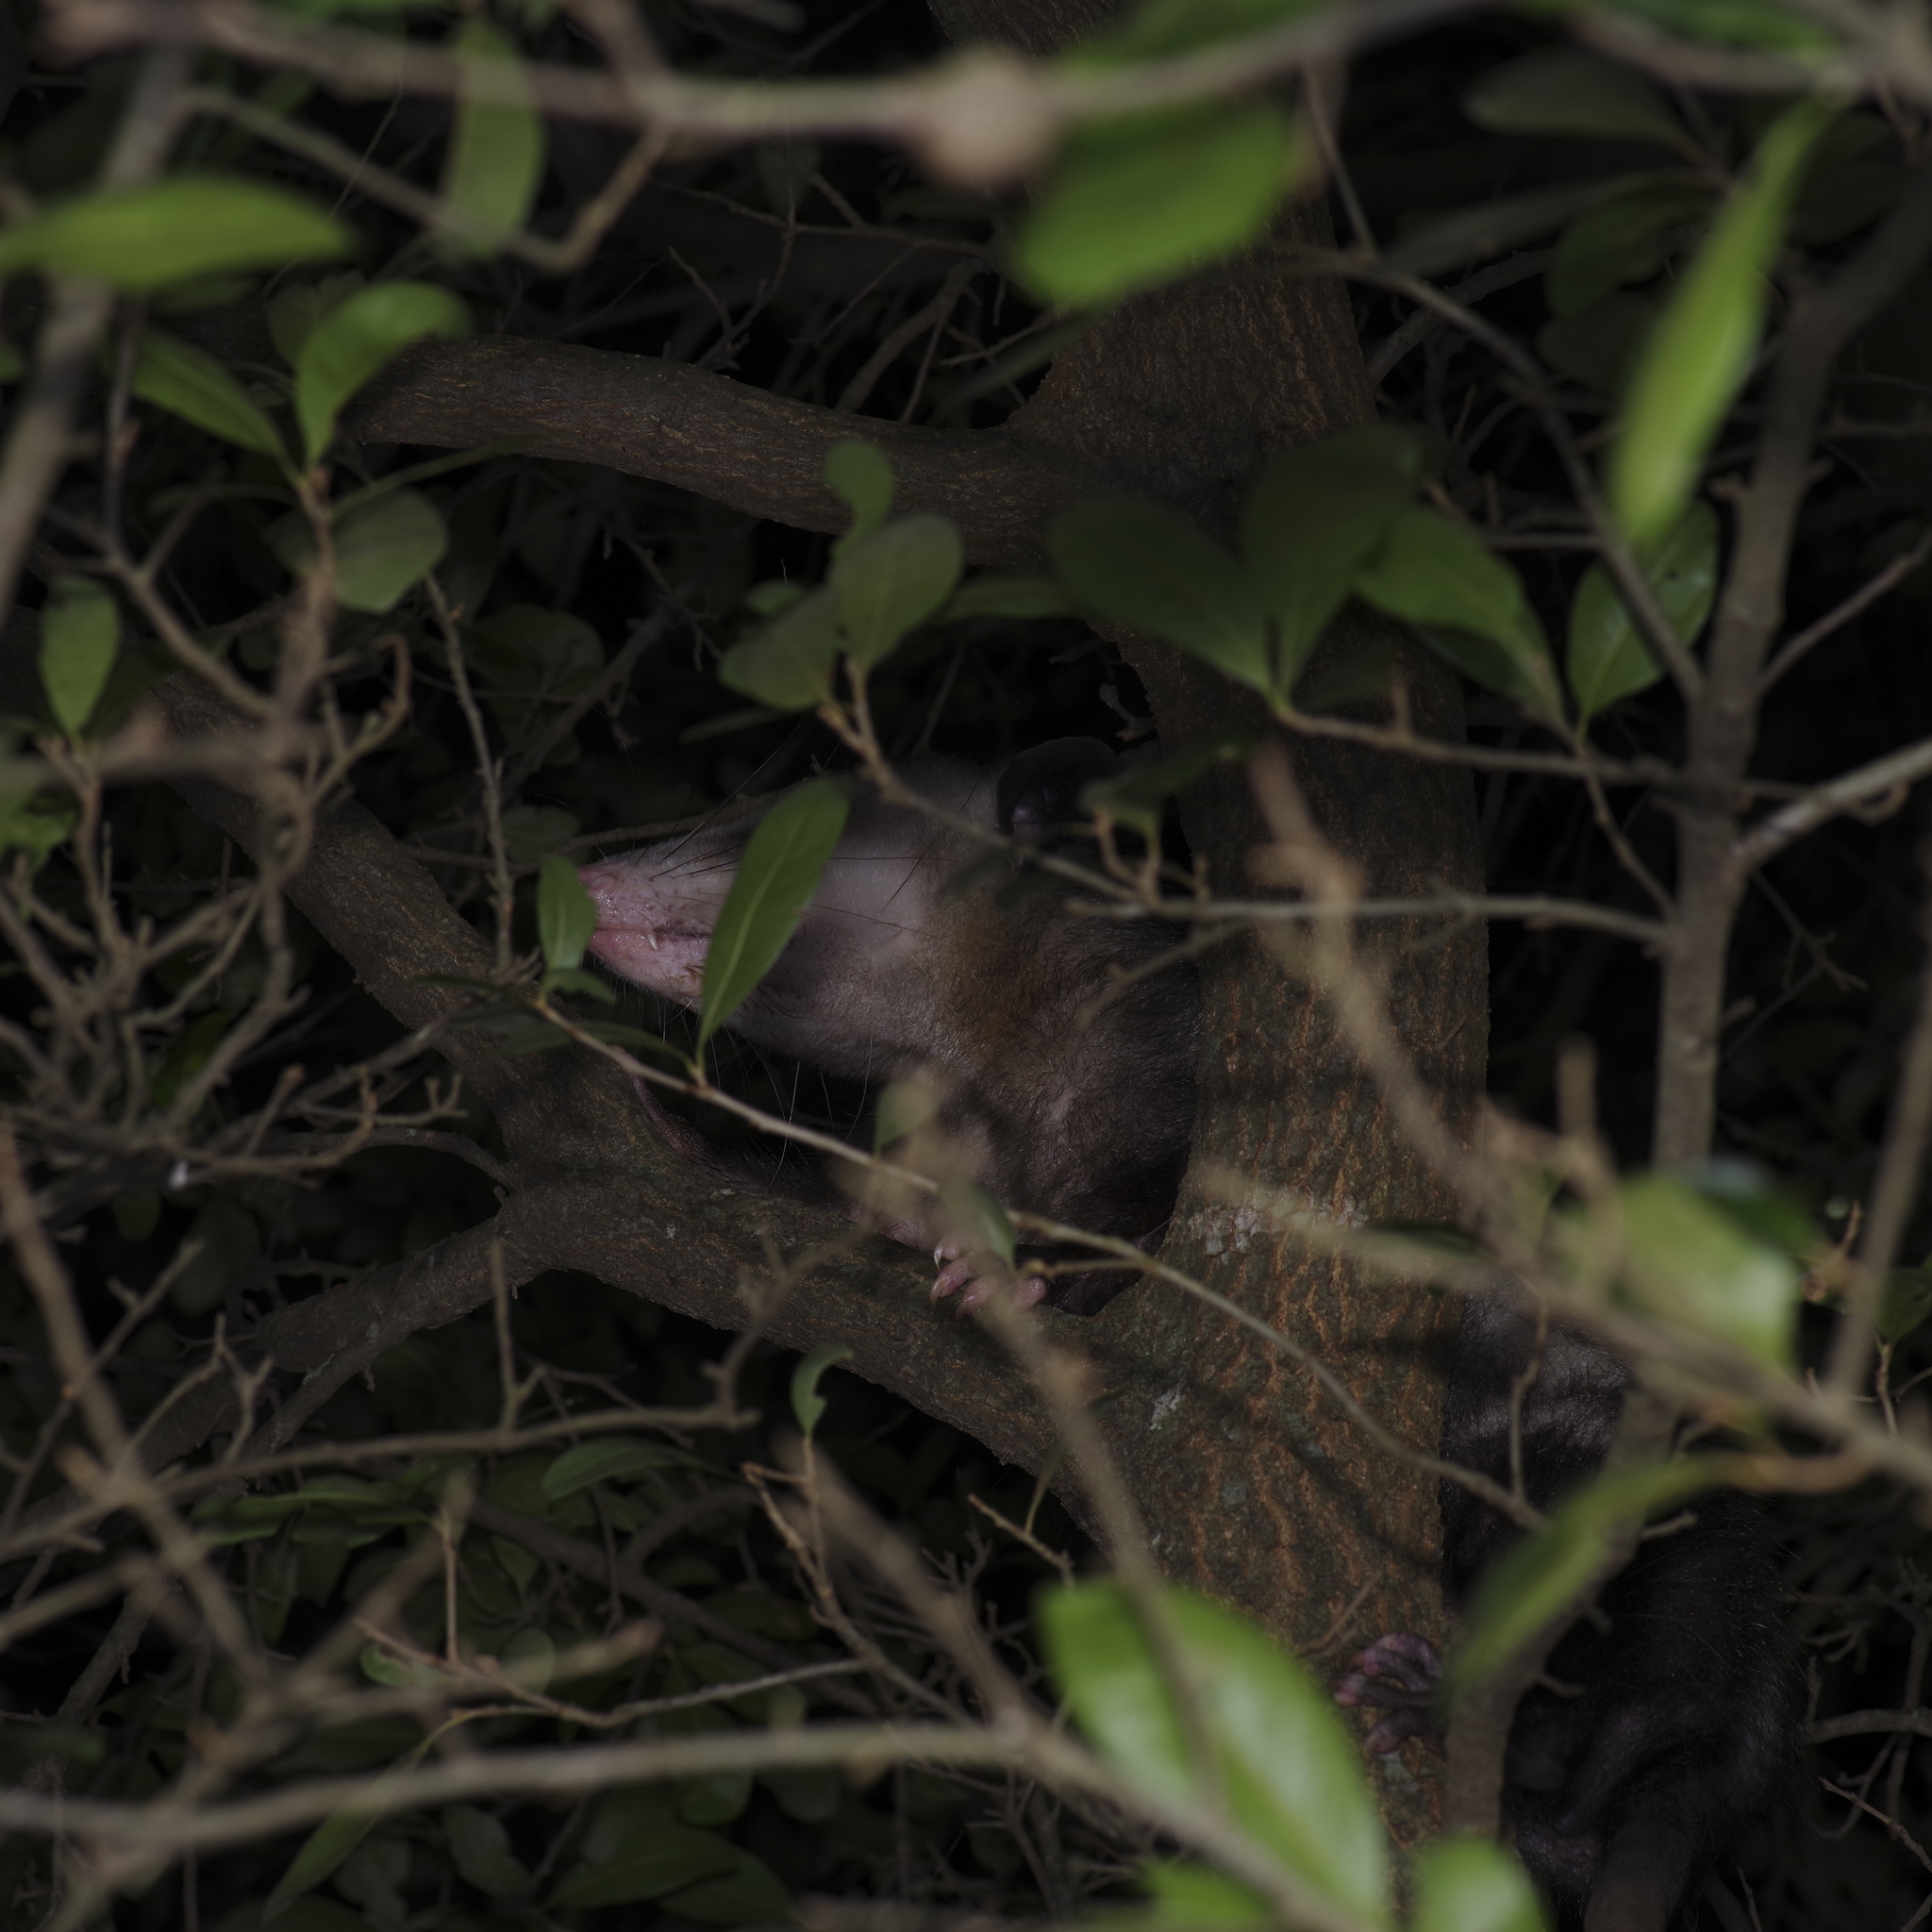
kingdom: Animalia
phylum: Chordata
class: Mammalia
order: Didelphimorphia
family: Didelphidae
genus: Didelphis
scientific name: Didelphis virginiana
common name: Virginia opossum
